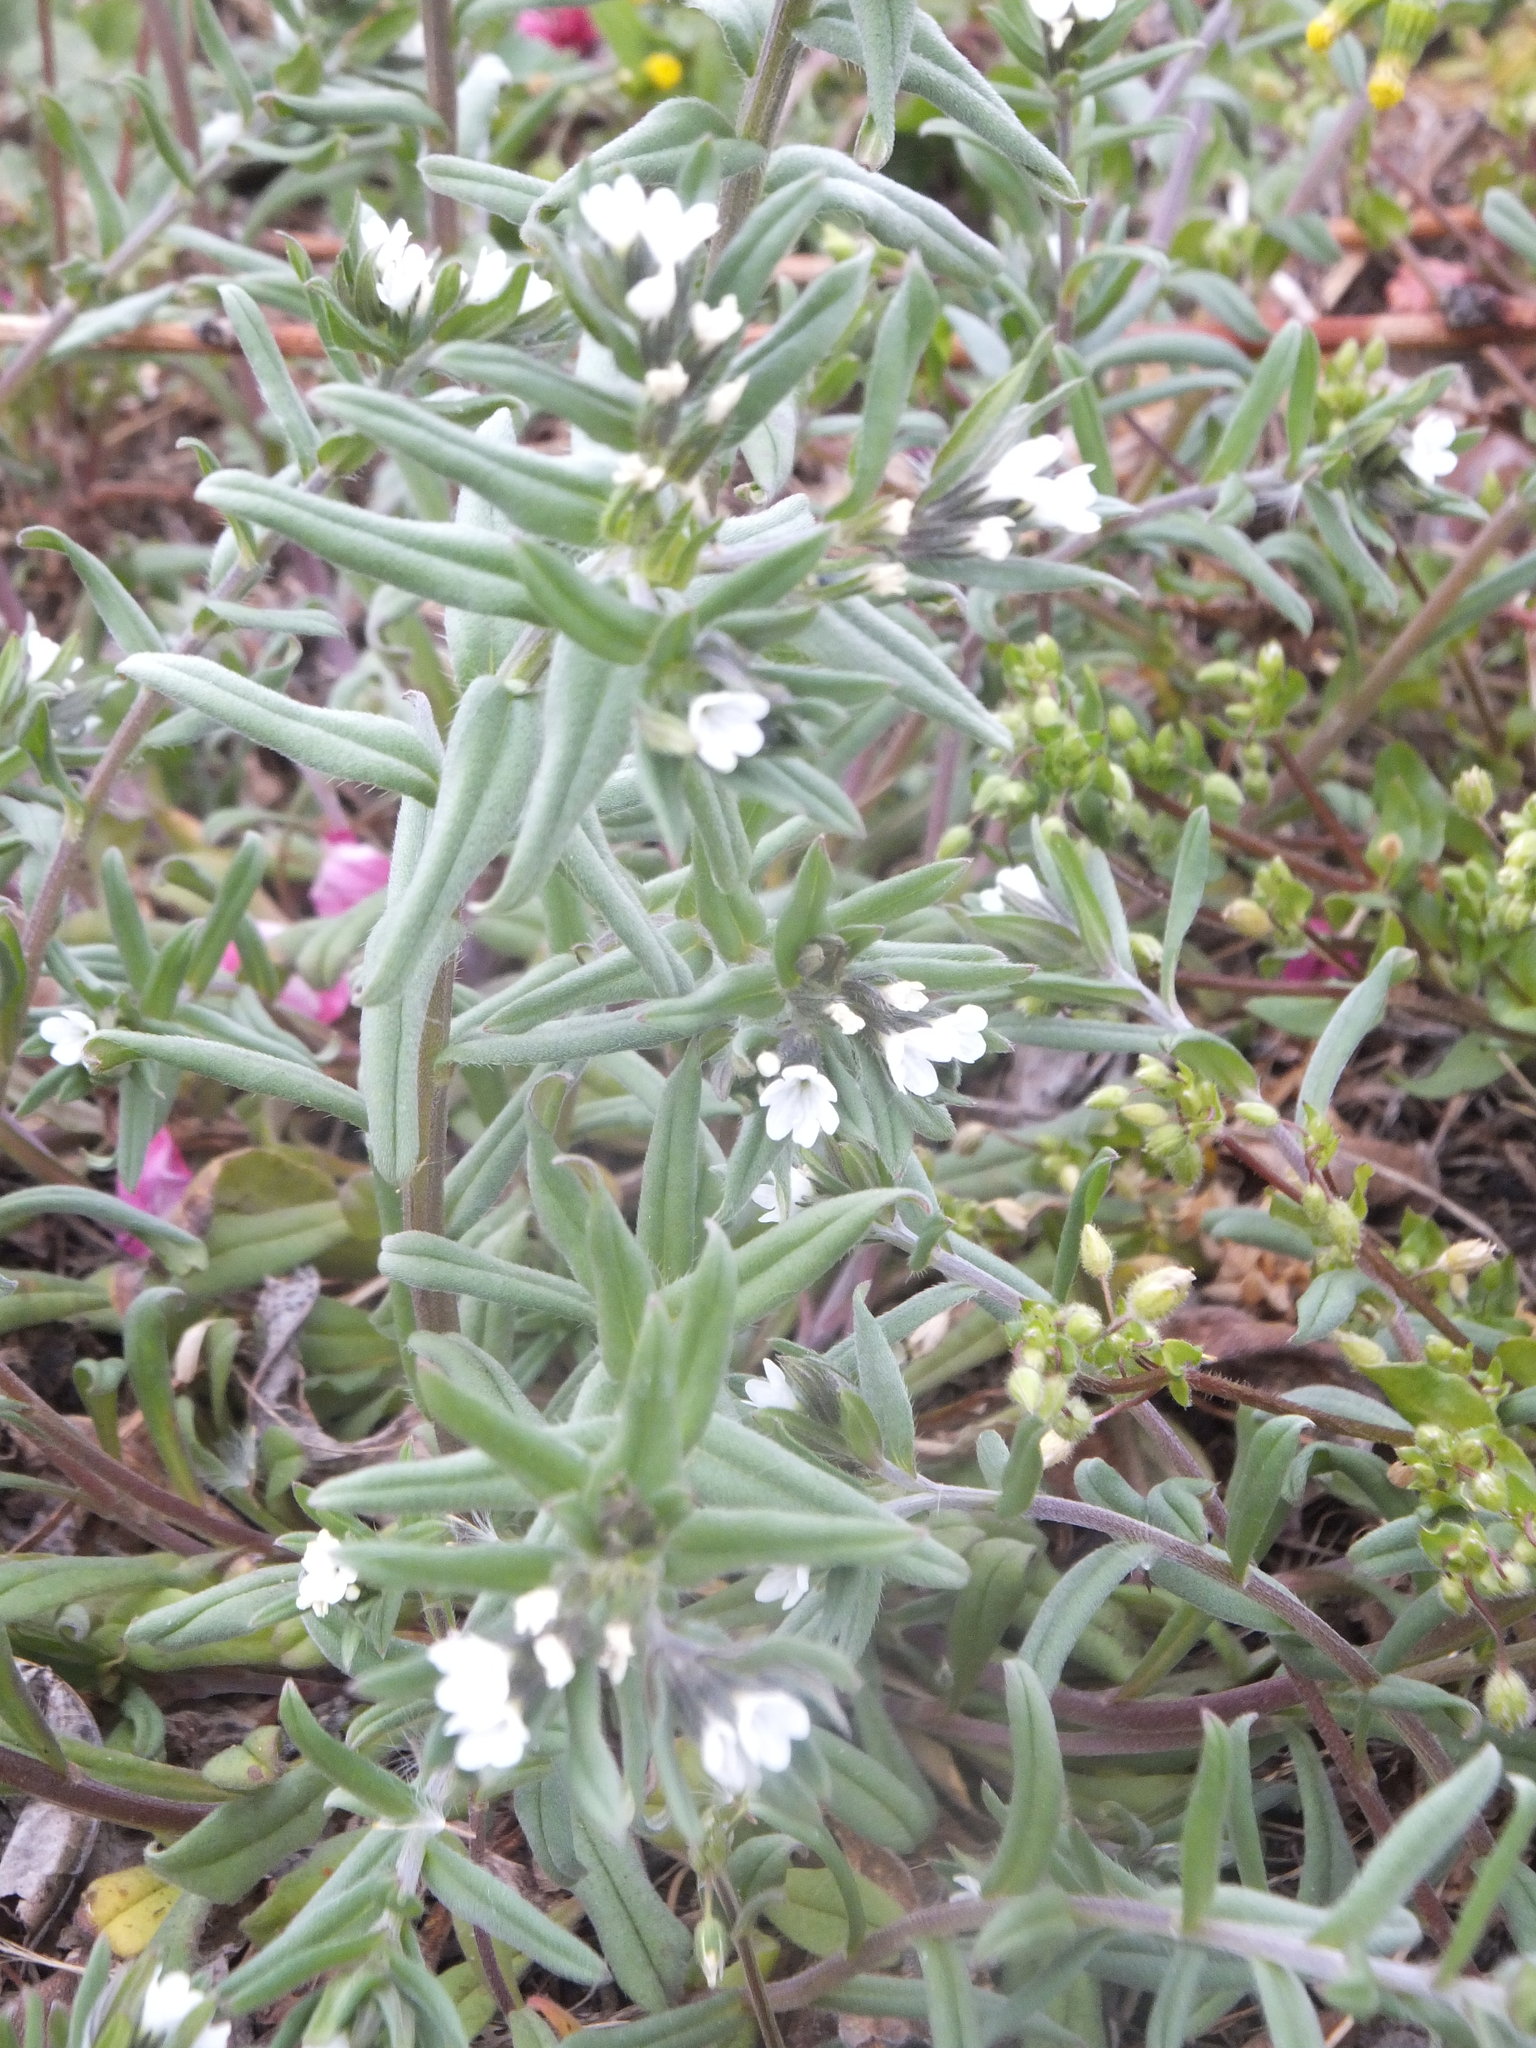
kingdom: Plantae
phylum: Tracheophyta
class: Magnoliopsida
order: Boraginales
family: Boraginaceae
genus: Buglossoides
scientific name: Buglossoides arvensis
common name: Corn gromwell
